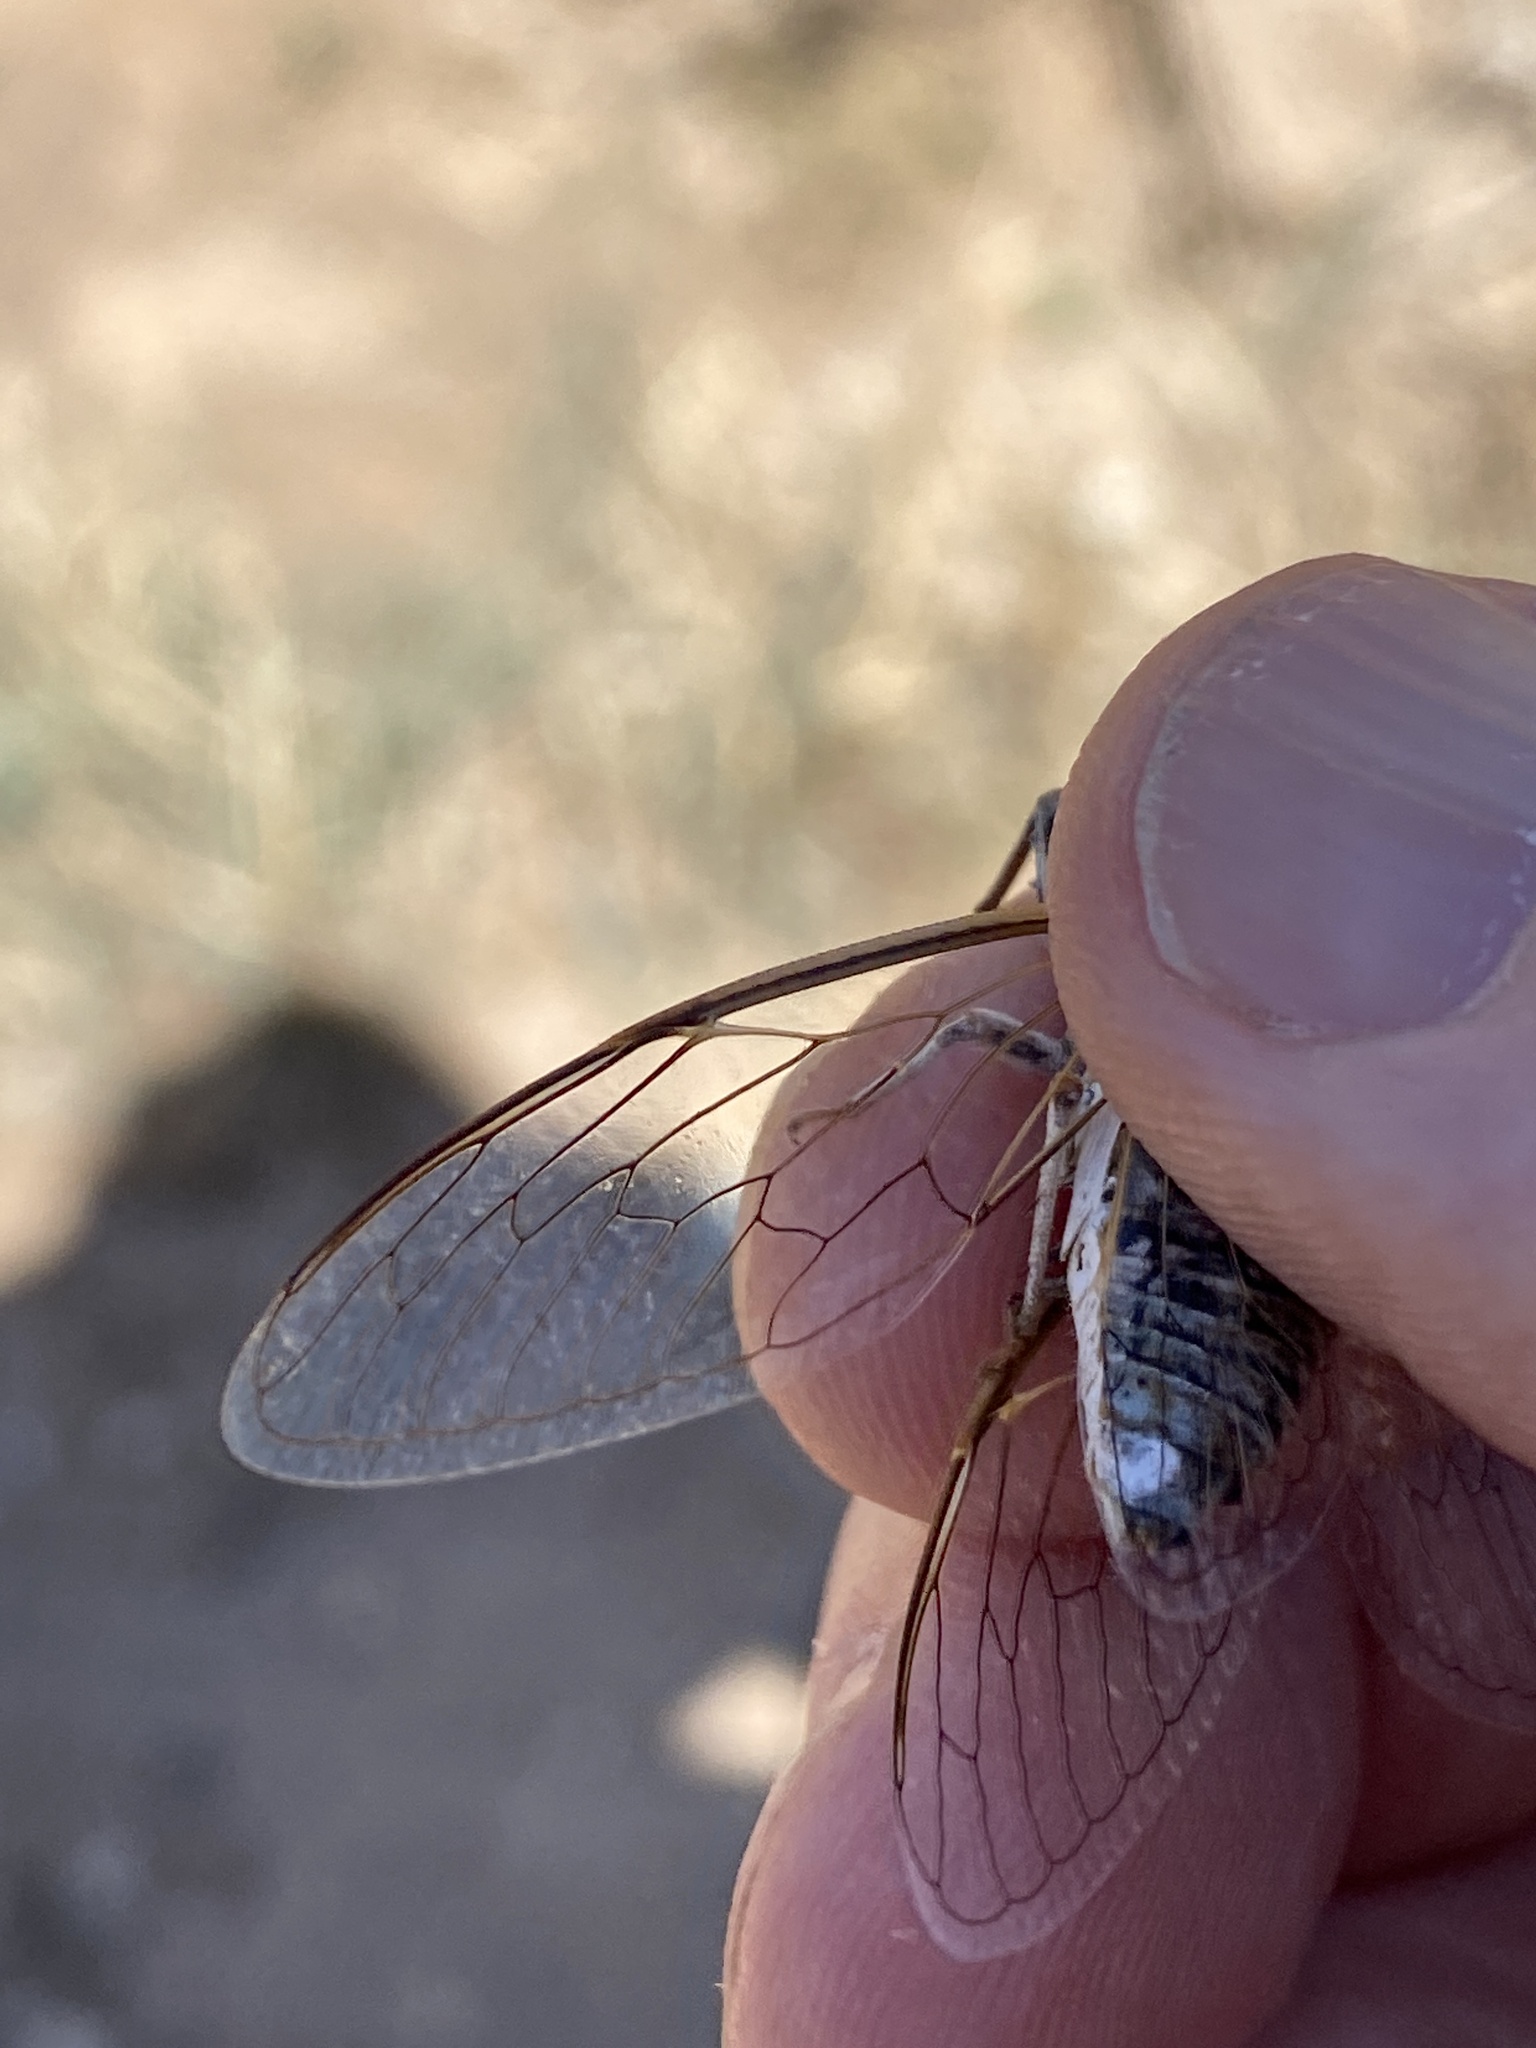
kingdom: Animalia
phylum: Arthropoda
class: Insecta
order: Hemiptera
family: Cicadidae
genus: Diceroprocta
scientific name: Diceroprocta eugraphica
